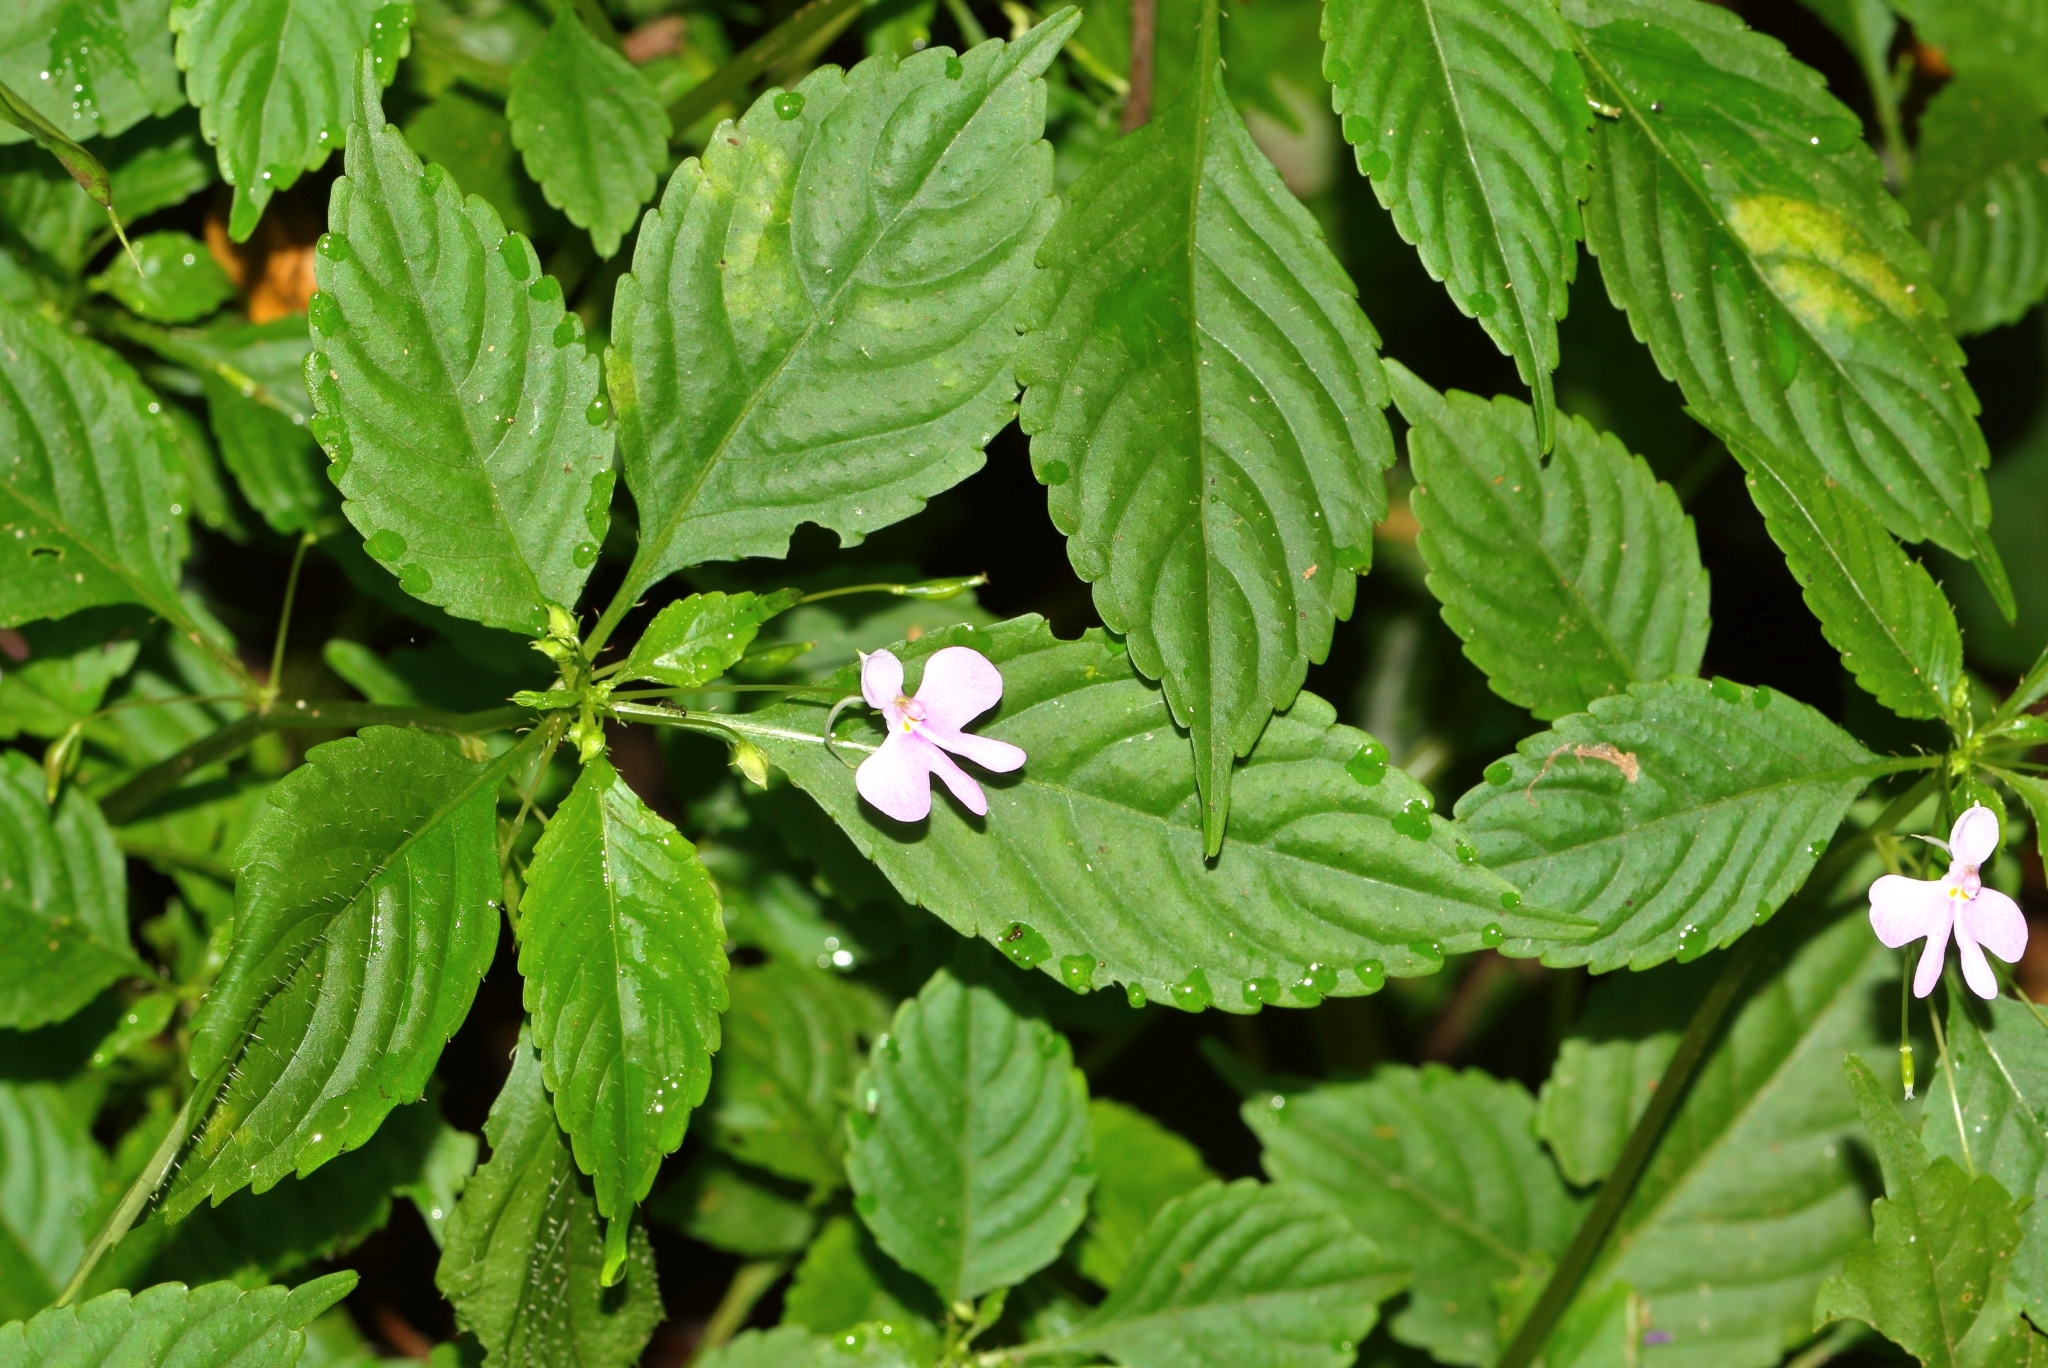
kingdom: Plantae
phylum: Tracheophyta
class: Magnoliopsida
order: Ericales
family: Balsaminaceae
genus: Impatiens
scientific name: Impatiens hochstetteri
